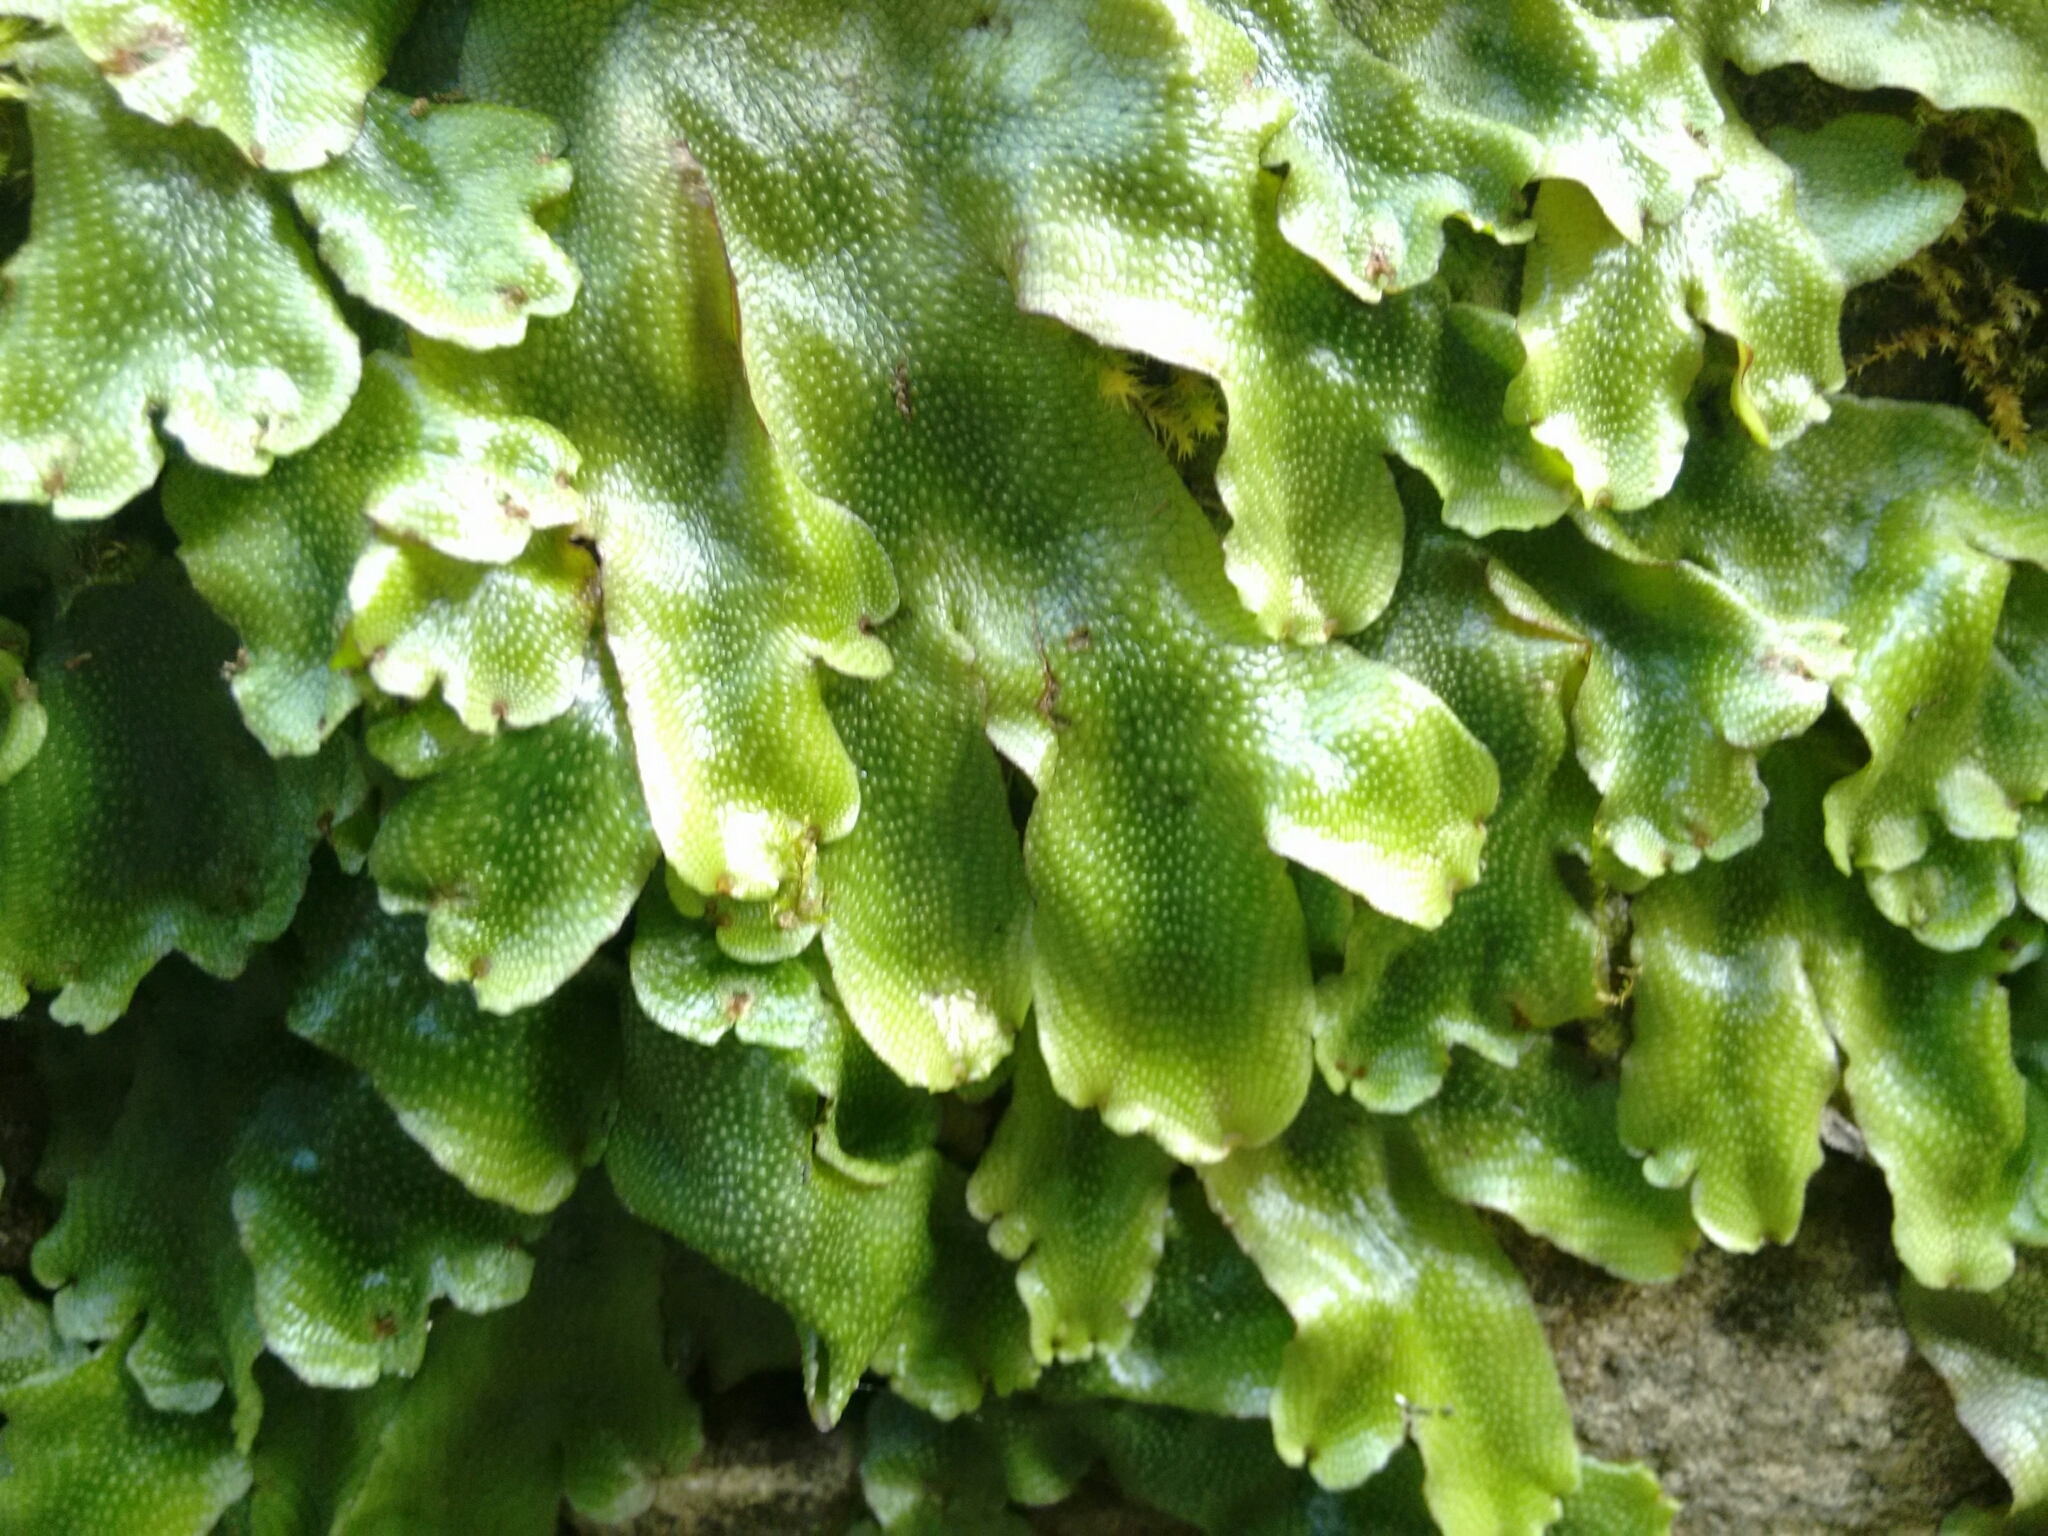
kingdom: Plantae
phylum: Marchantiophyta
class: Marchantiopsida
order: Marchantiales
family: Conocephalaceae
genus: Conocephalum
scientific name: Conocephalum conicum
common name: Great scented liverwort
